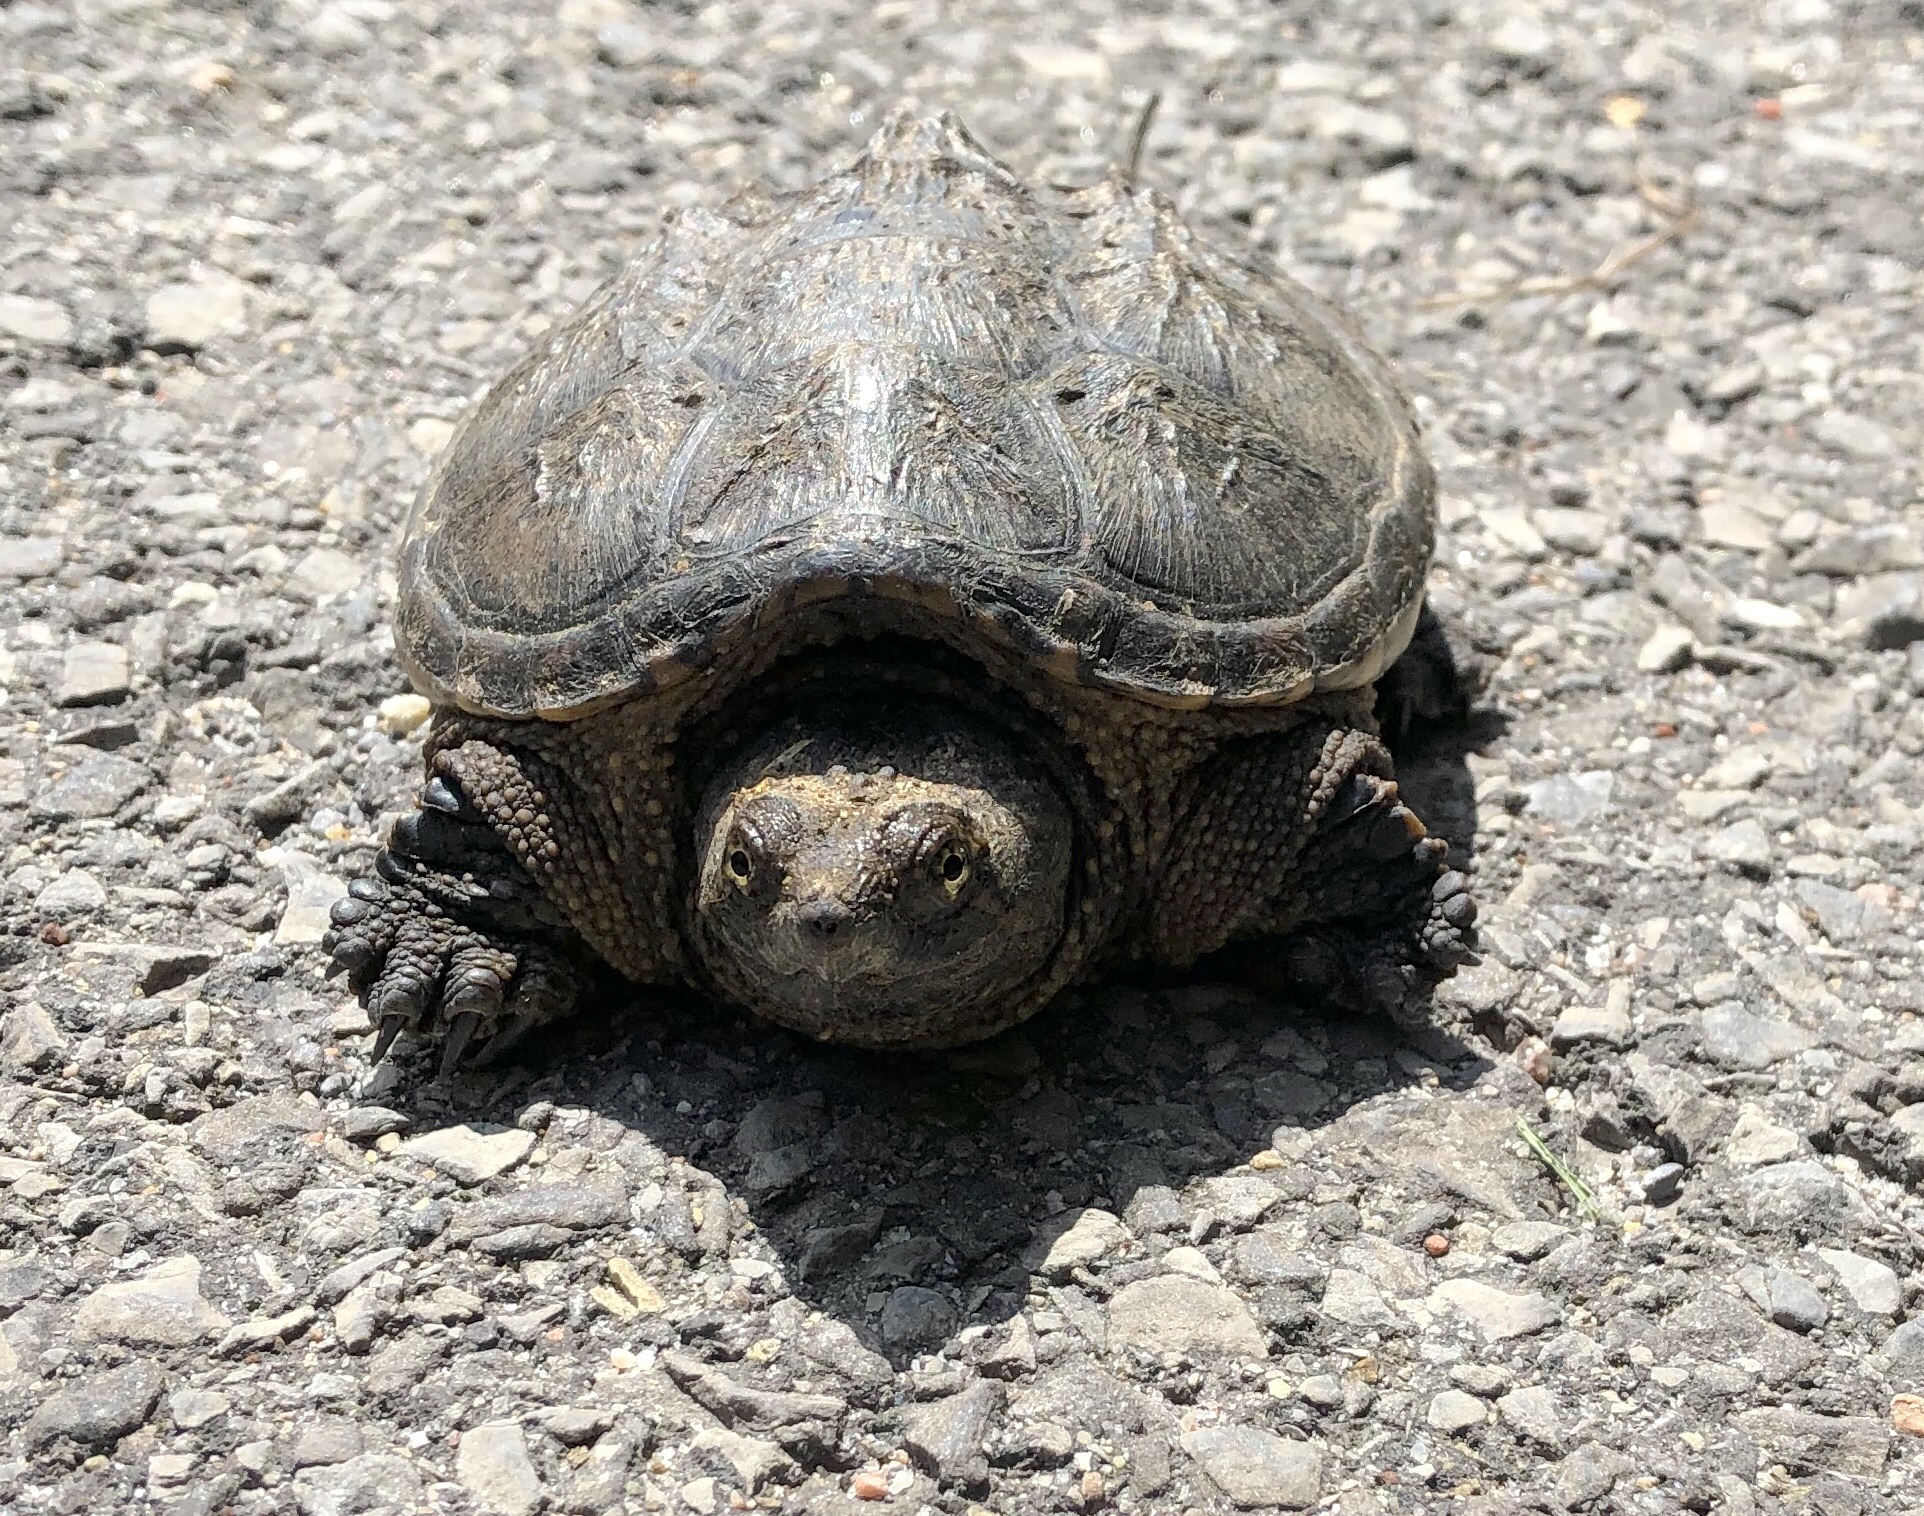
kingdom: Animalia
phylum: Chordata
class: Testudines
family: Chelydridae
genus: Chelydra
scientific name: Chelydra serpentina
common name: Common snapping turtle
